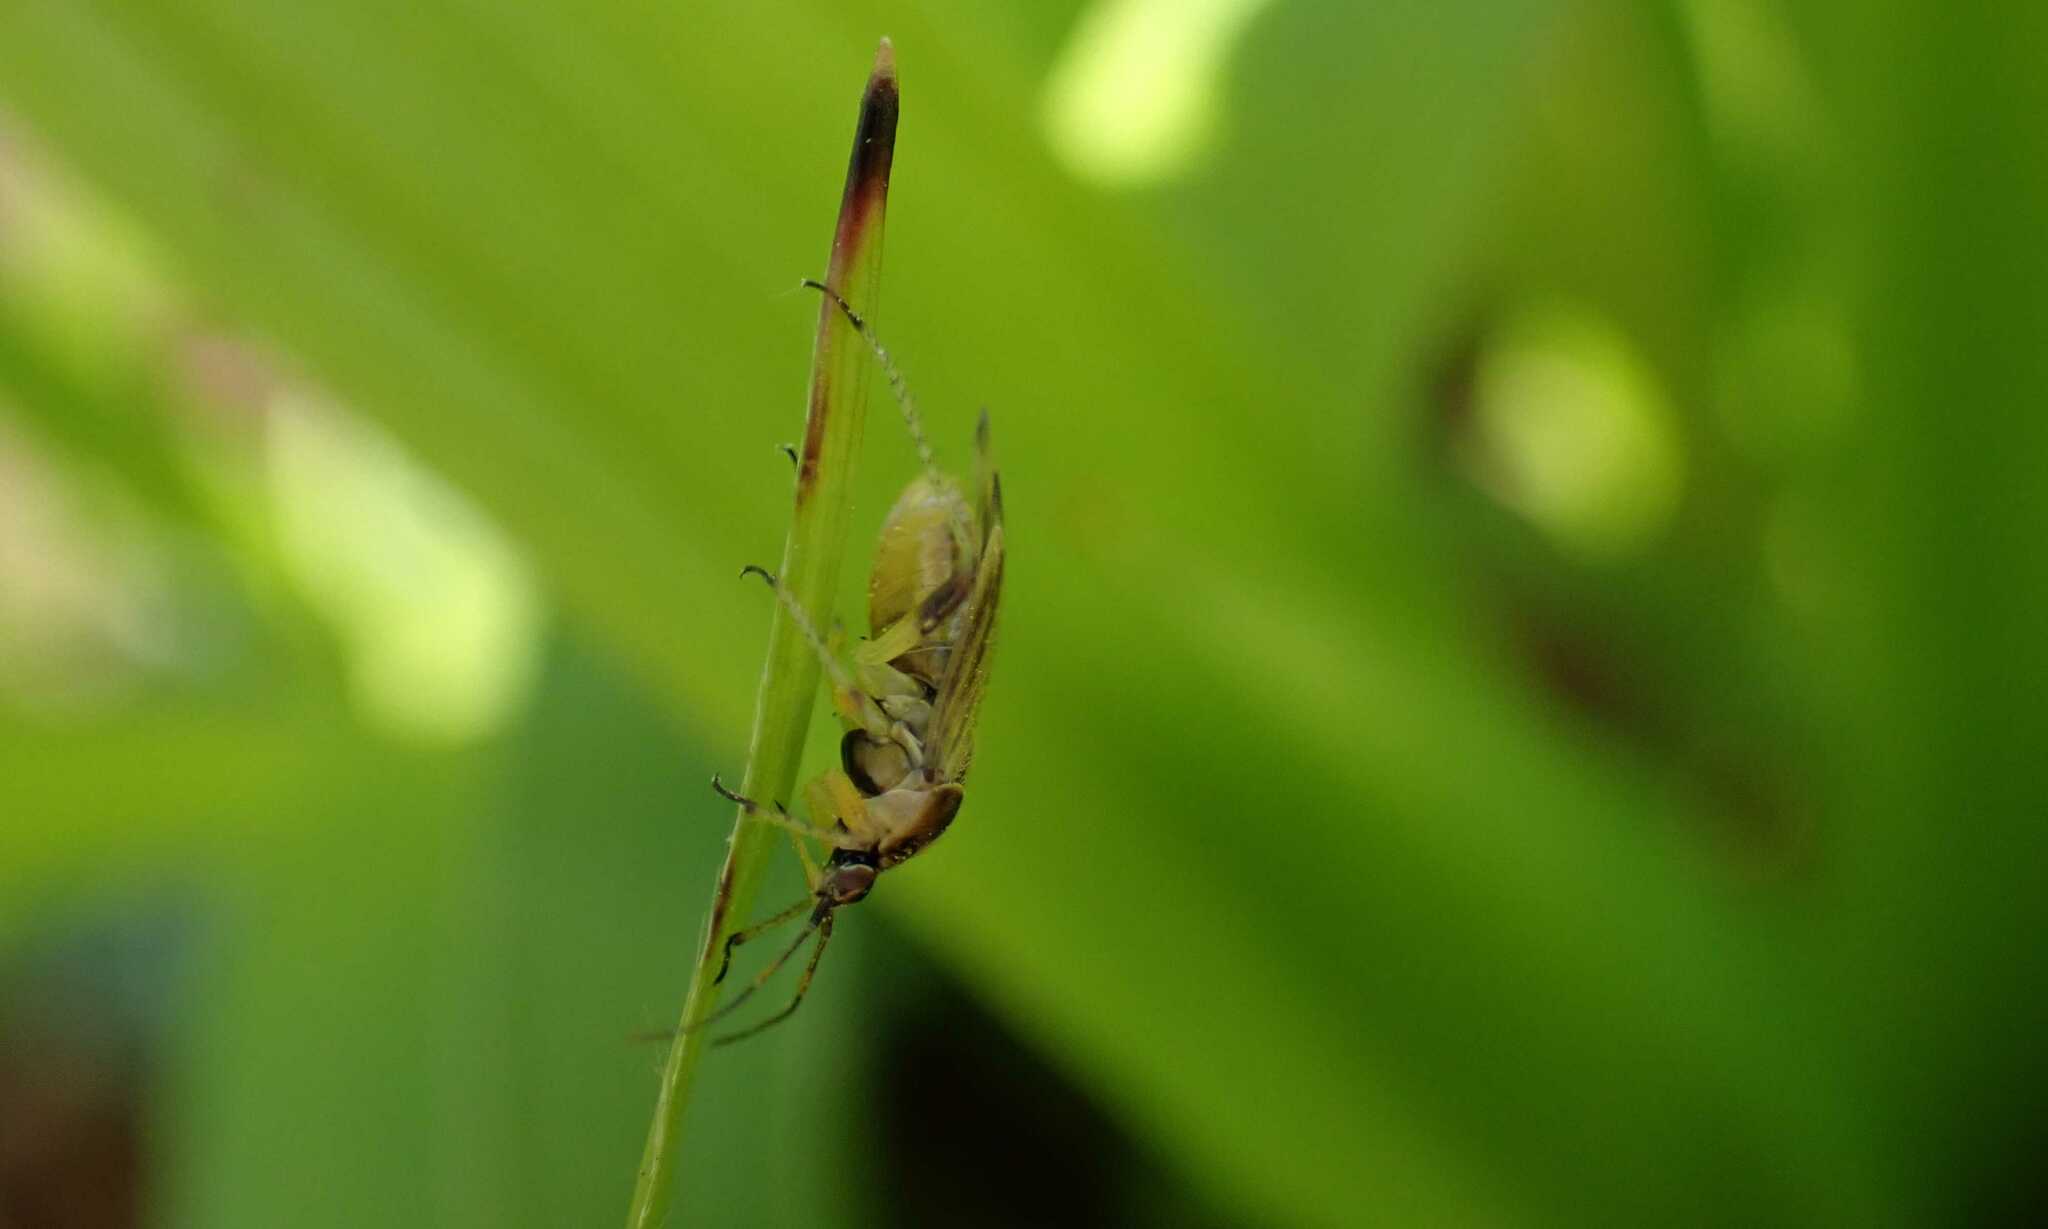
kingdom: Animalia
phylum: Arthropoda
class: Insecta
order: Hemiptera
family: Miridae
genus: Harpocera
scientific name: Harpocera thoracica
